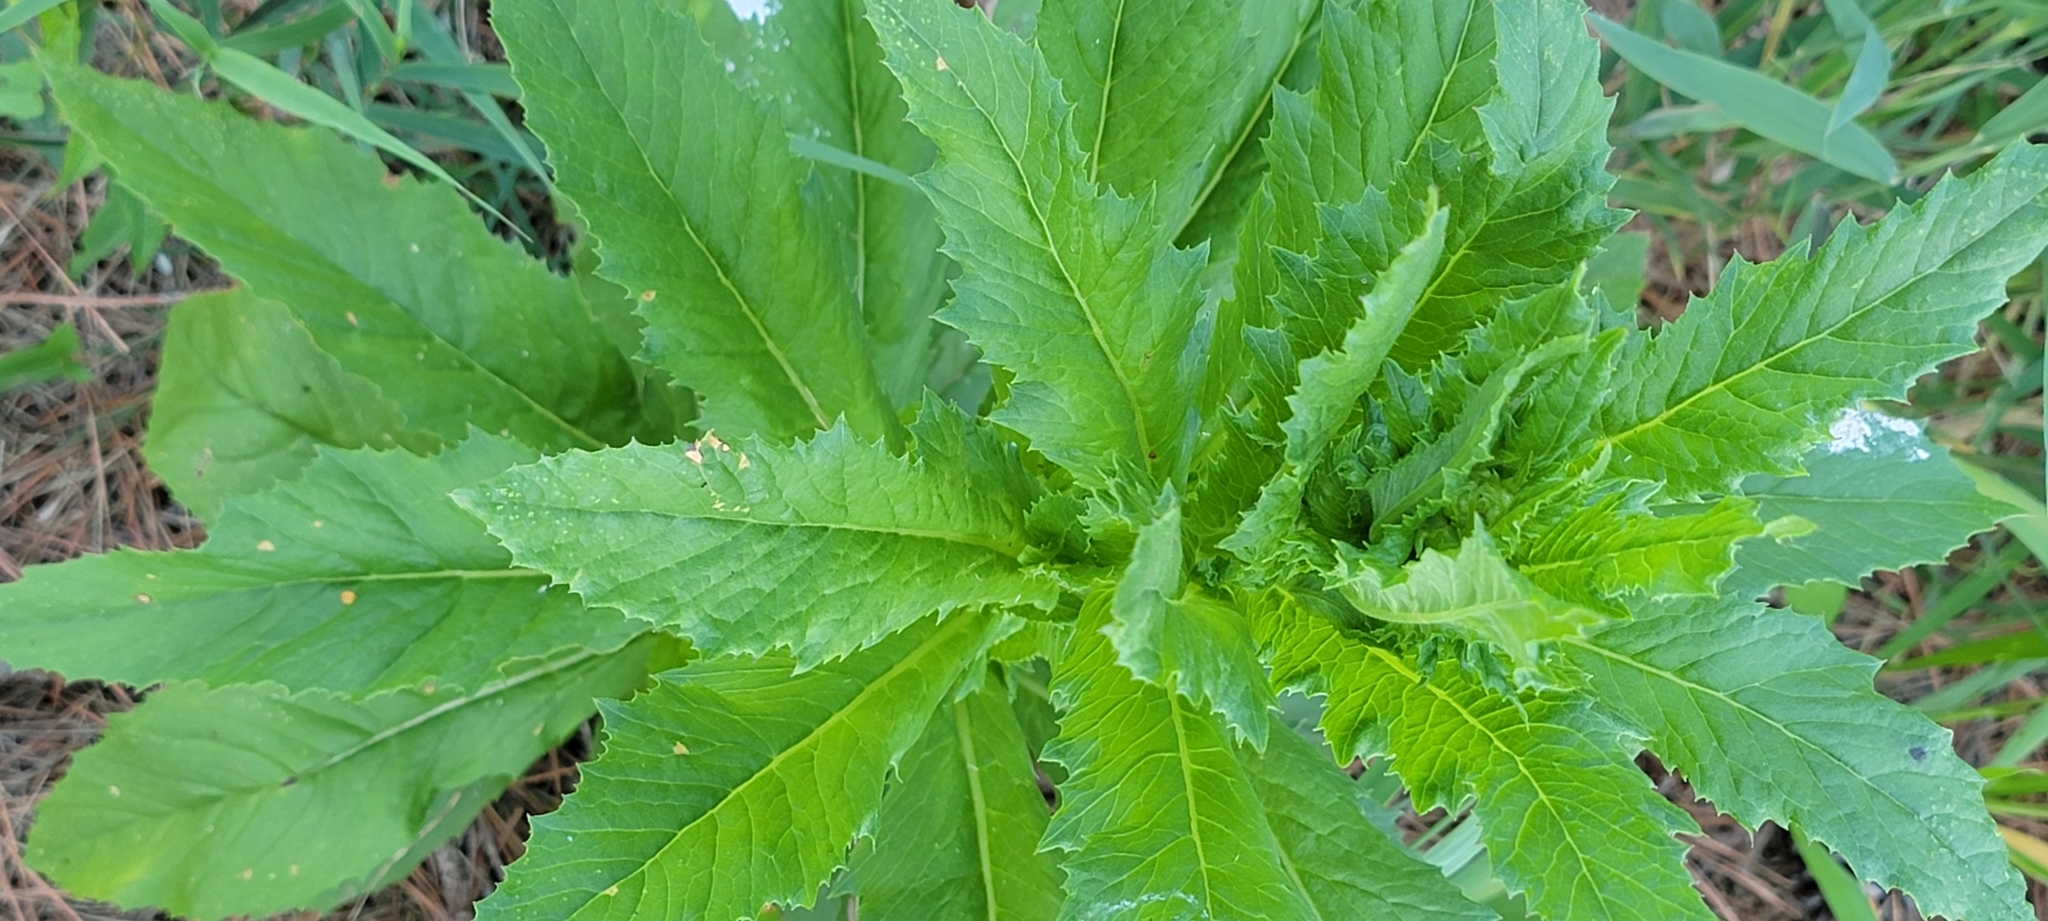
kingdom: Plantae
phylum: Tracheophyta
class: Magnoliopsida
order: Asterales
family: Asteraceae
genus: Erechtites
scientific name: Erechtites hieraciifolius
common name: American burnweed
